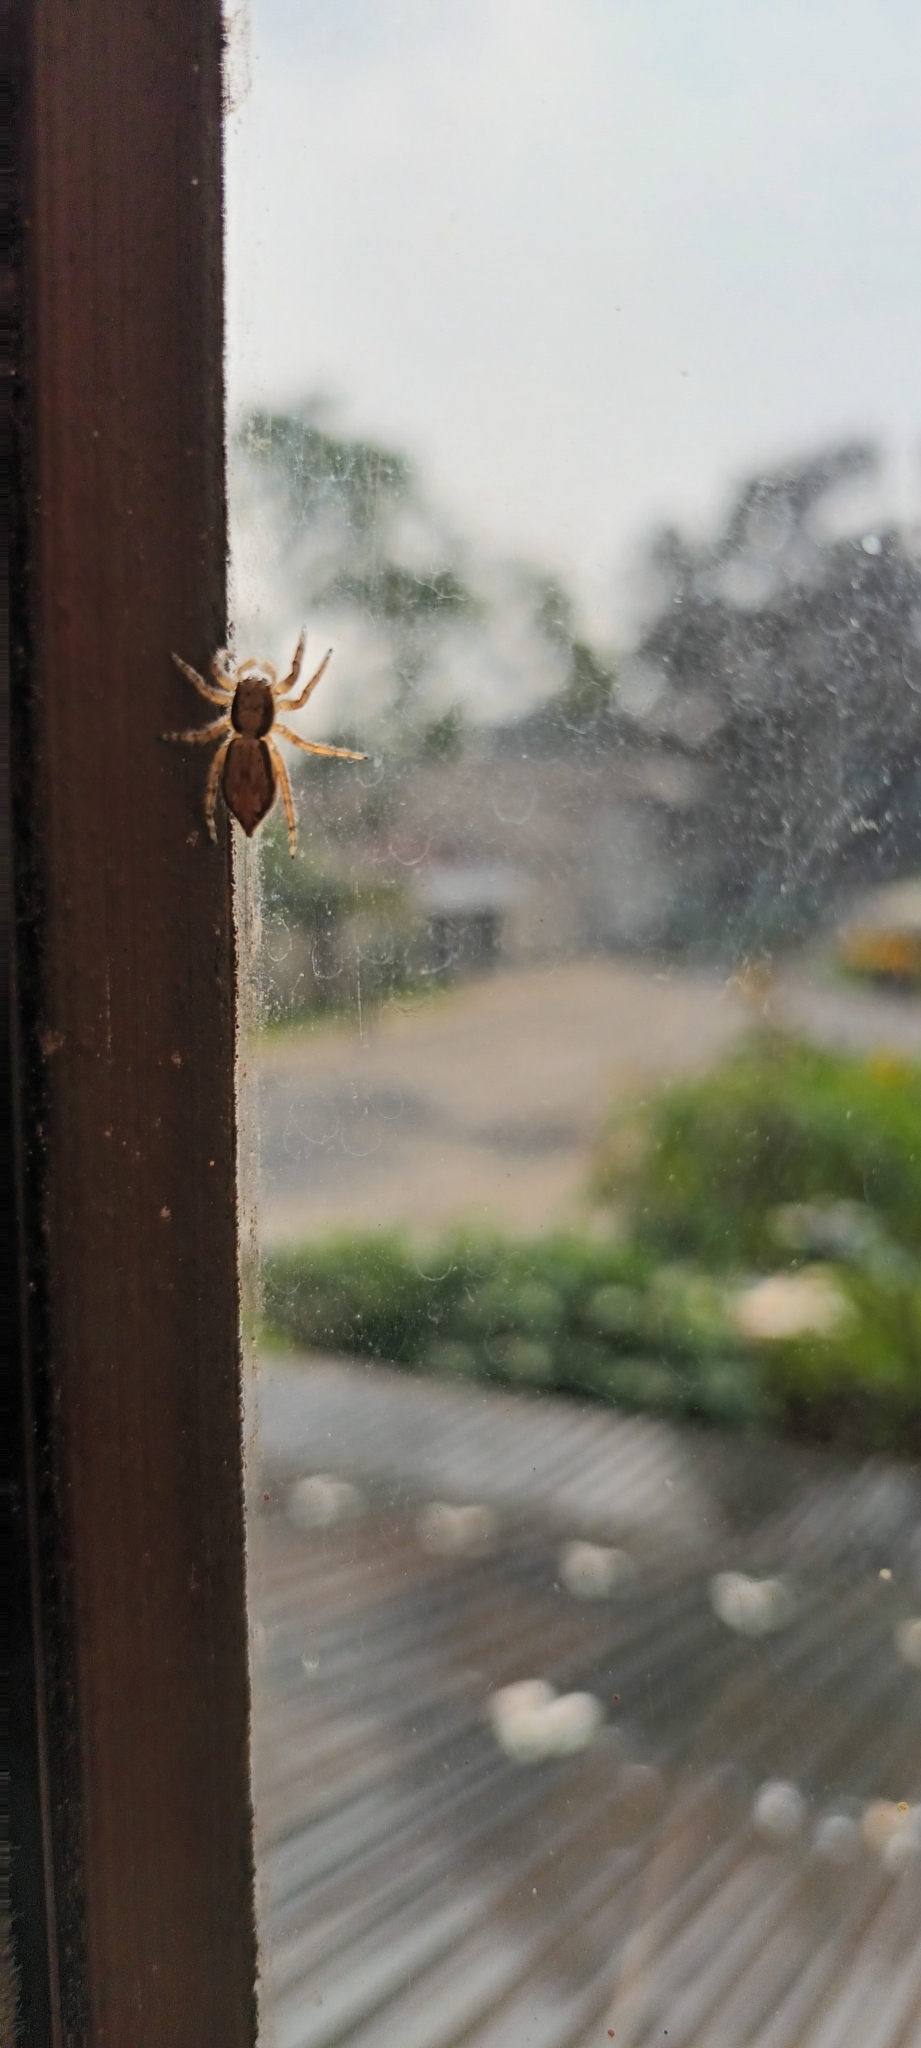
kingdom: Animalia
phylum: Arthropoda
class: Arachnida
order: Araneae
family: Salticidae
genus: Menemerus
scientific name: Menemerus bivittatus
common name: Gray wall jumper
